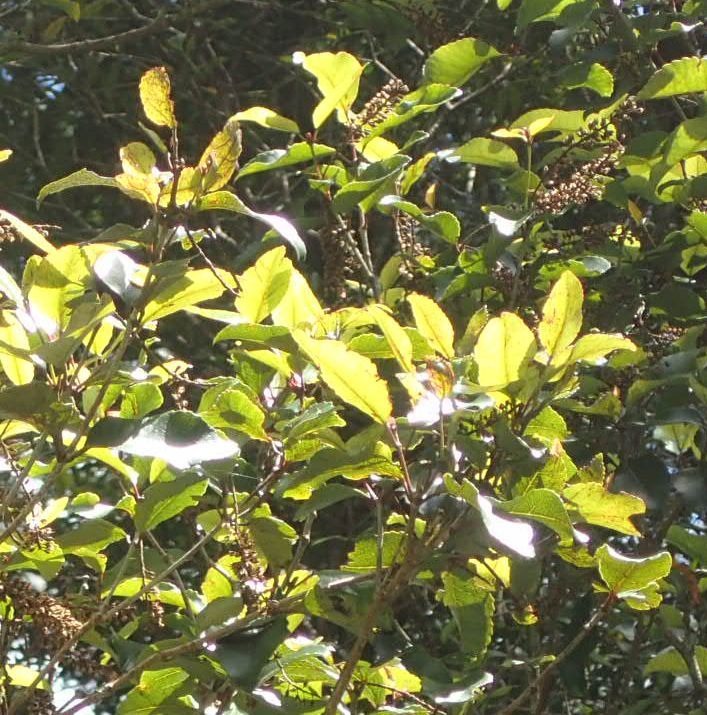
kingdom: Plantae
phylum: Tracheophyta
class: Magnoliopsida
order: Oxalidales
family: Cunoniaceae
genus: Pterophylla
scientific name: Pterophylla racemosa
